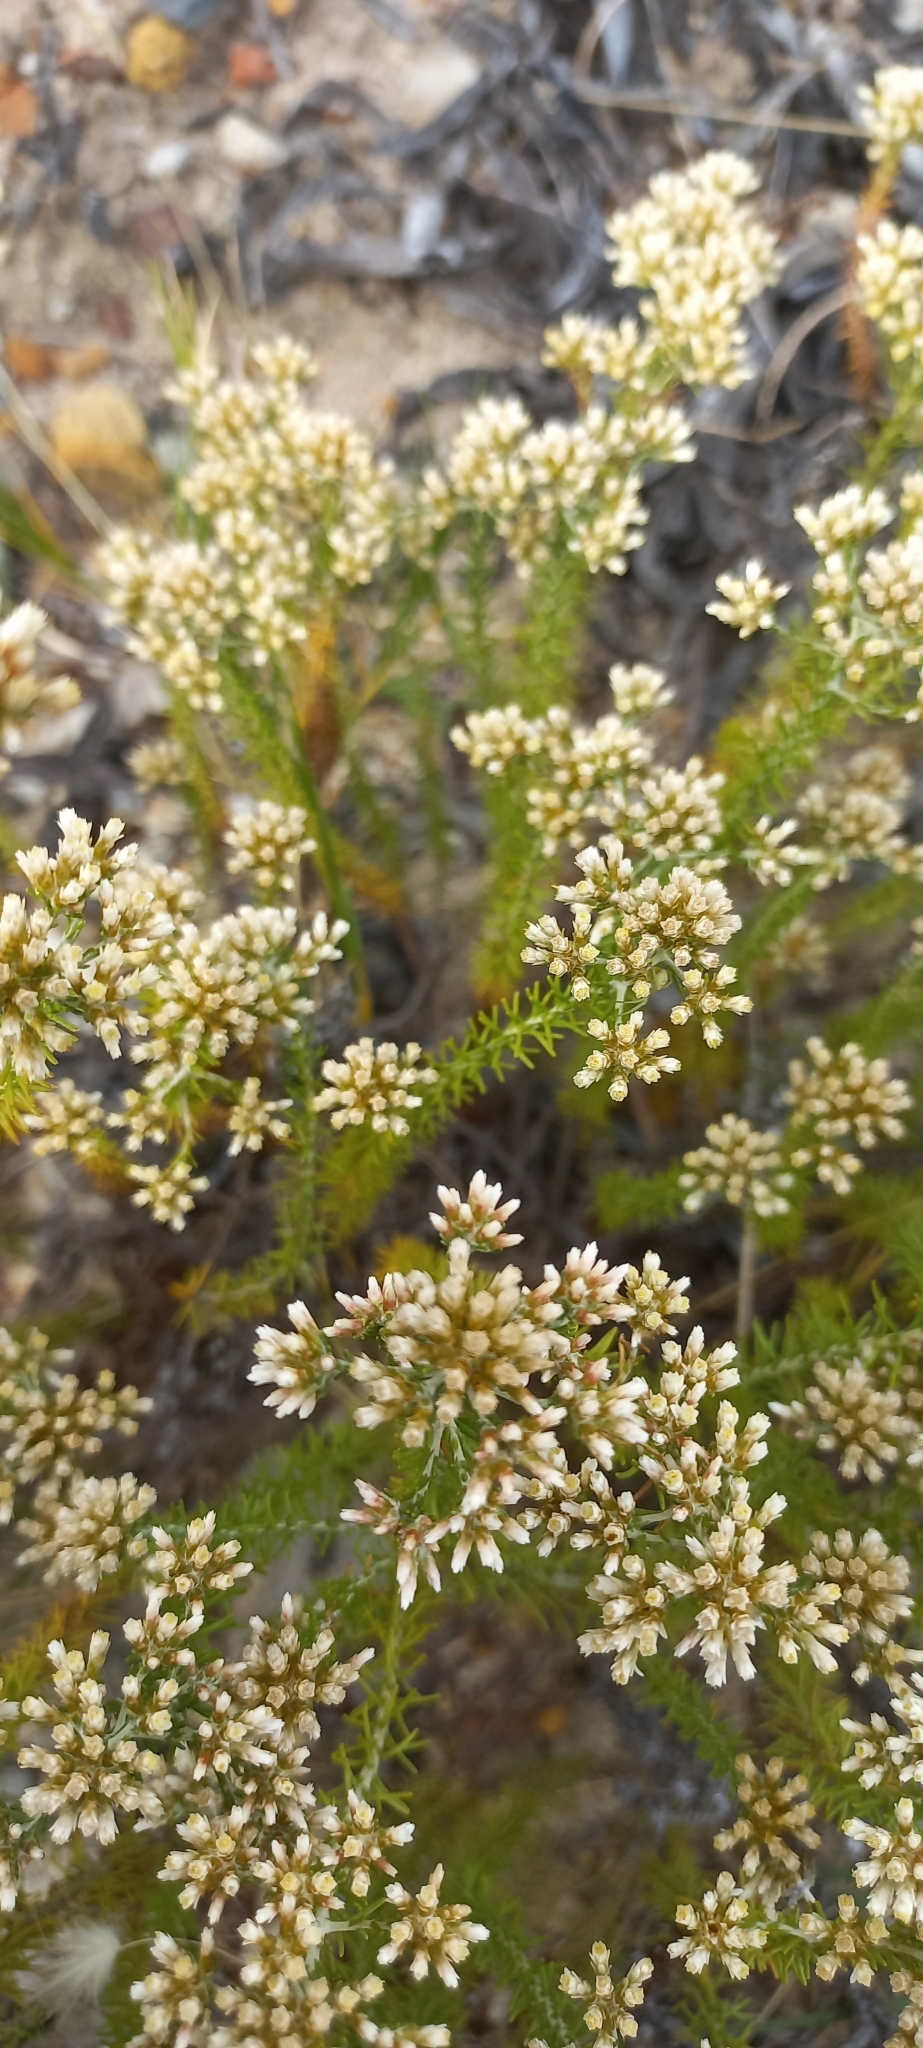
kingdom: Plantae
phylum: Tracheophyta
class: Magnoliopsida
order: Asterales
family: Asteraceae
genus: Helichrysum
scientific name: Helichrysum niveum
